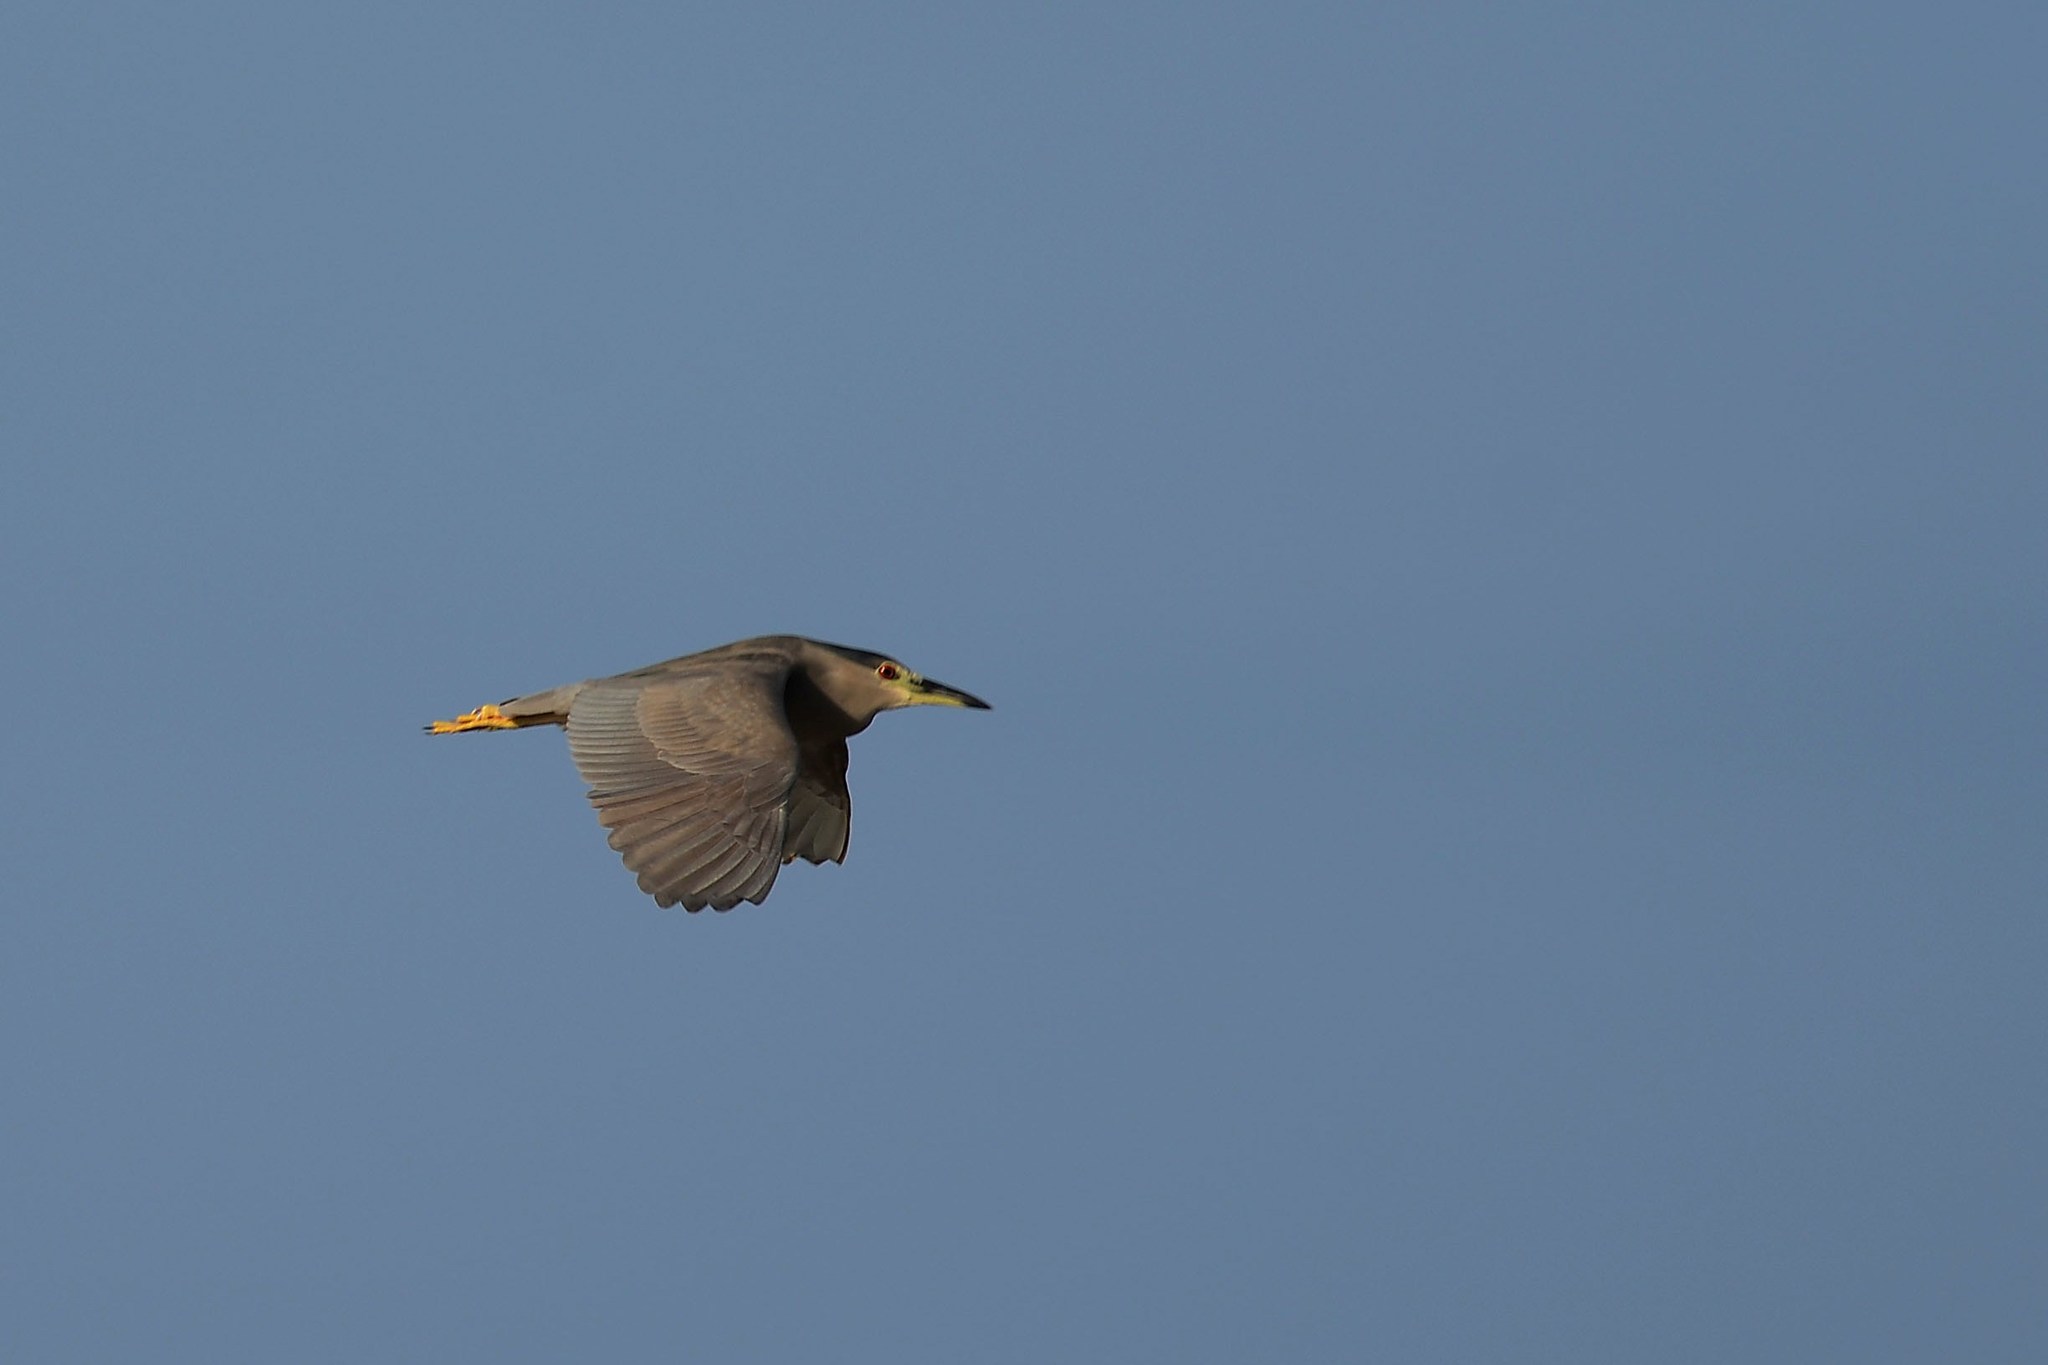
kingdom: Animalia
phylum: Chordata
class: Aves
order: Pelecaniformes
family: Ardeidae
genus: Nycticorax
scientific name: Nycticorax nycticorax
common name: Black-crowned night heron
